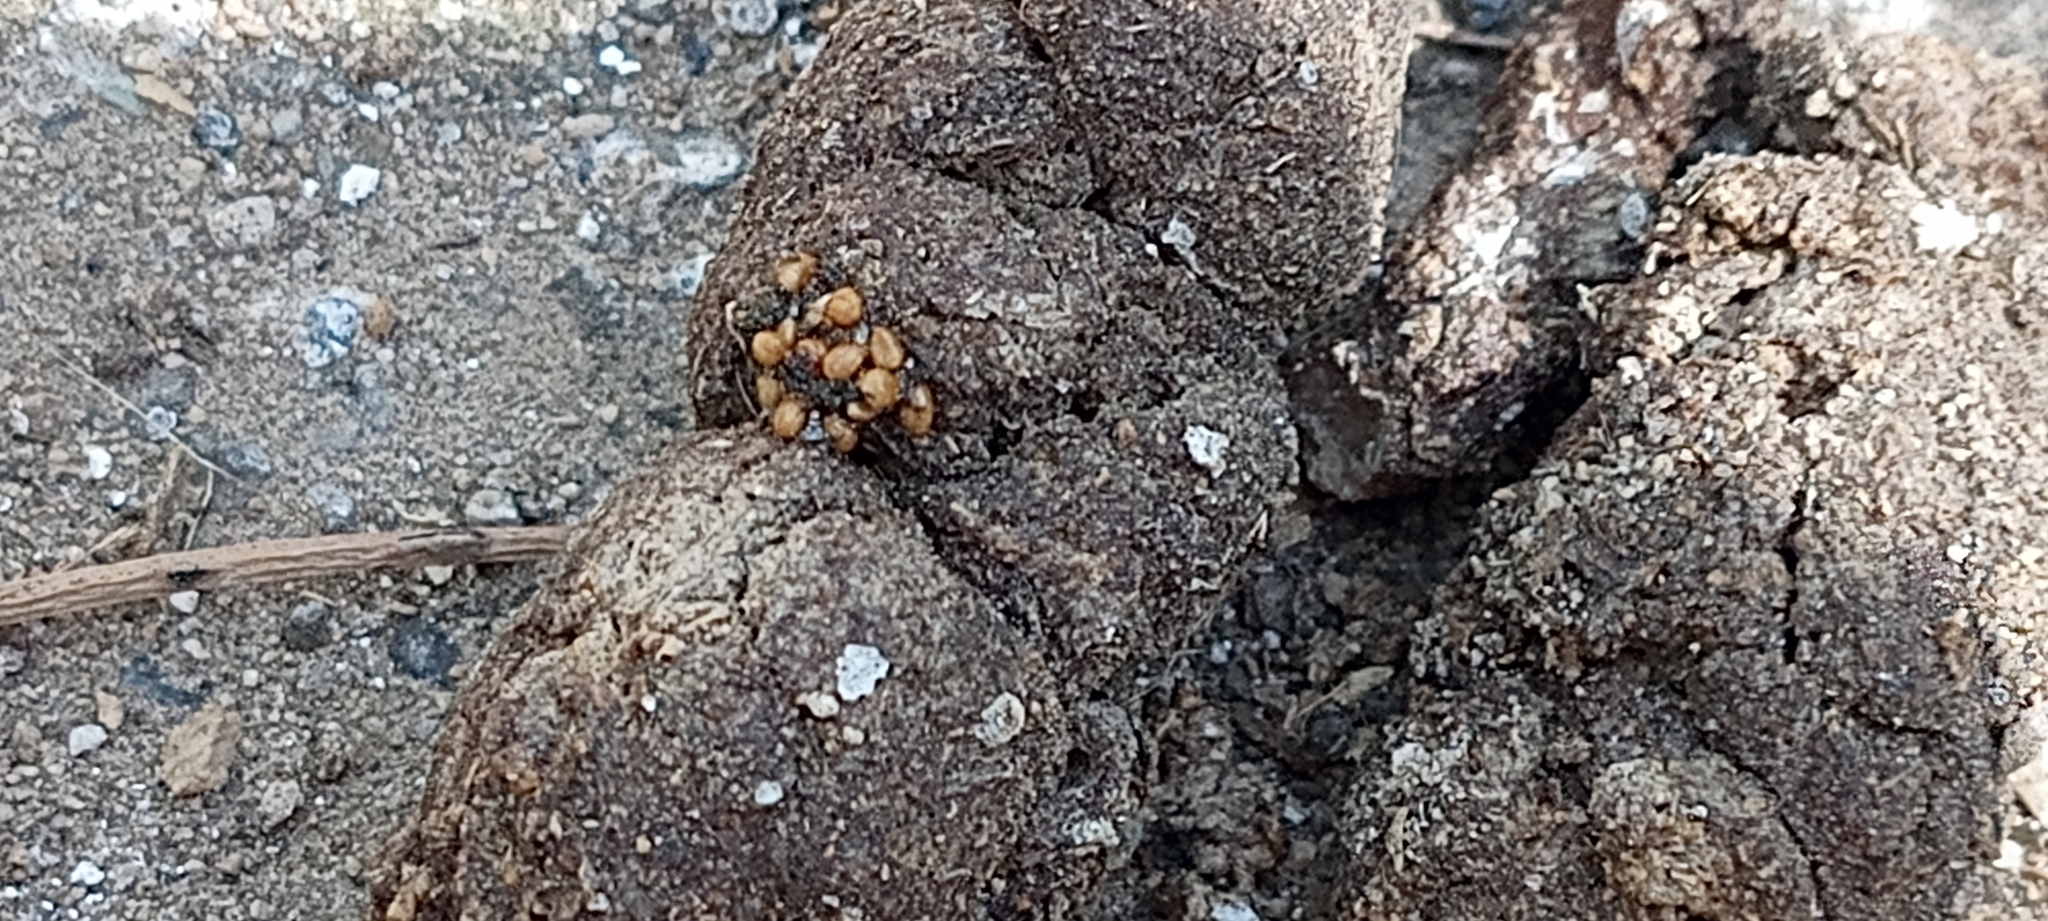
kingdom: Animalia
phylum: Chordata
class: Mammalia
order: Carnivora
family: Procyonidae
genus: Bassariscus
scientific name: Bassariscus astutus
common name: Ringtail
